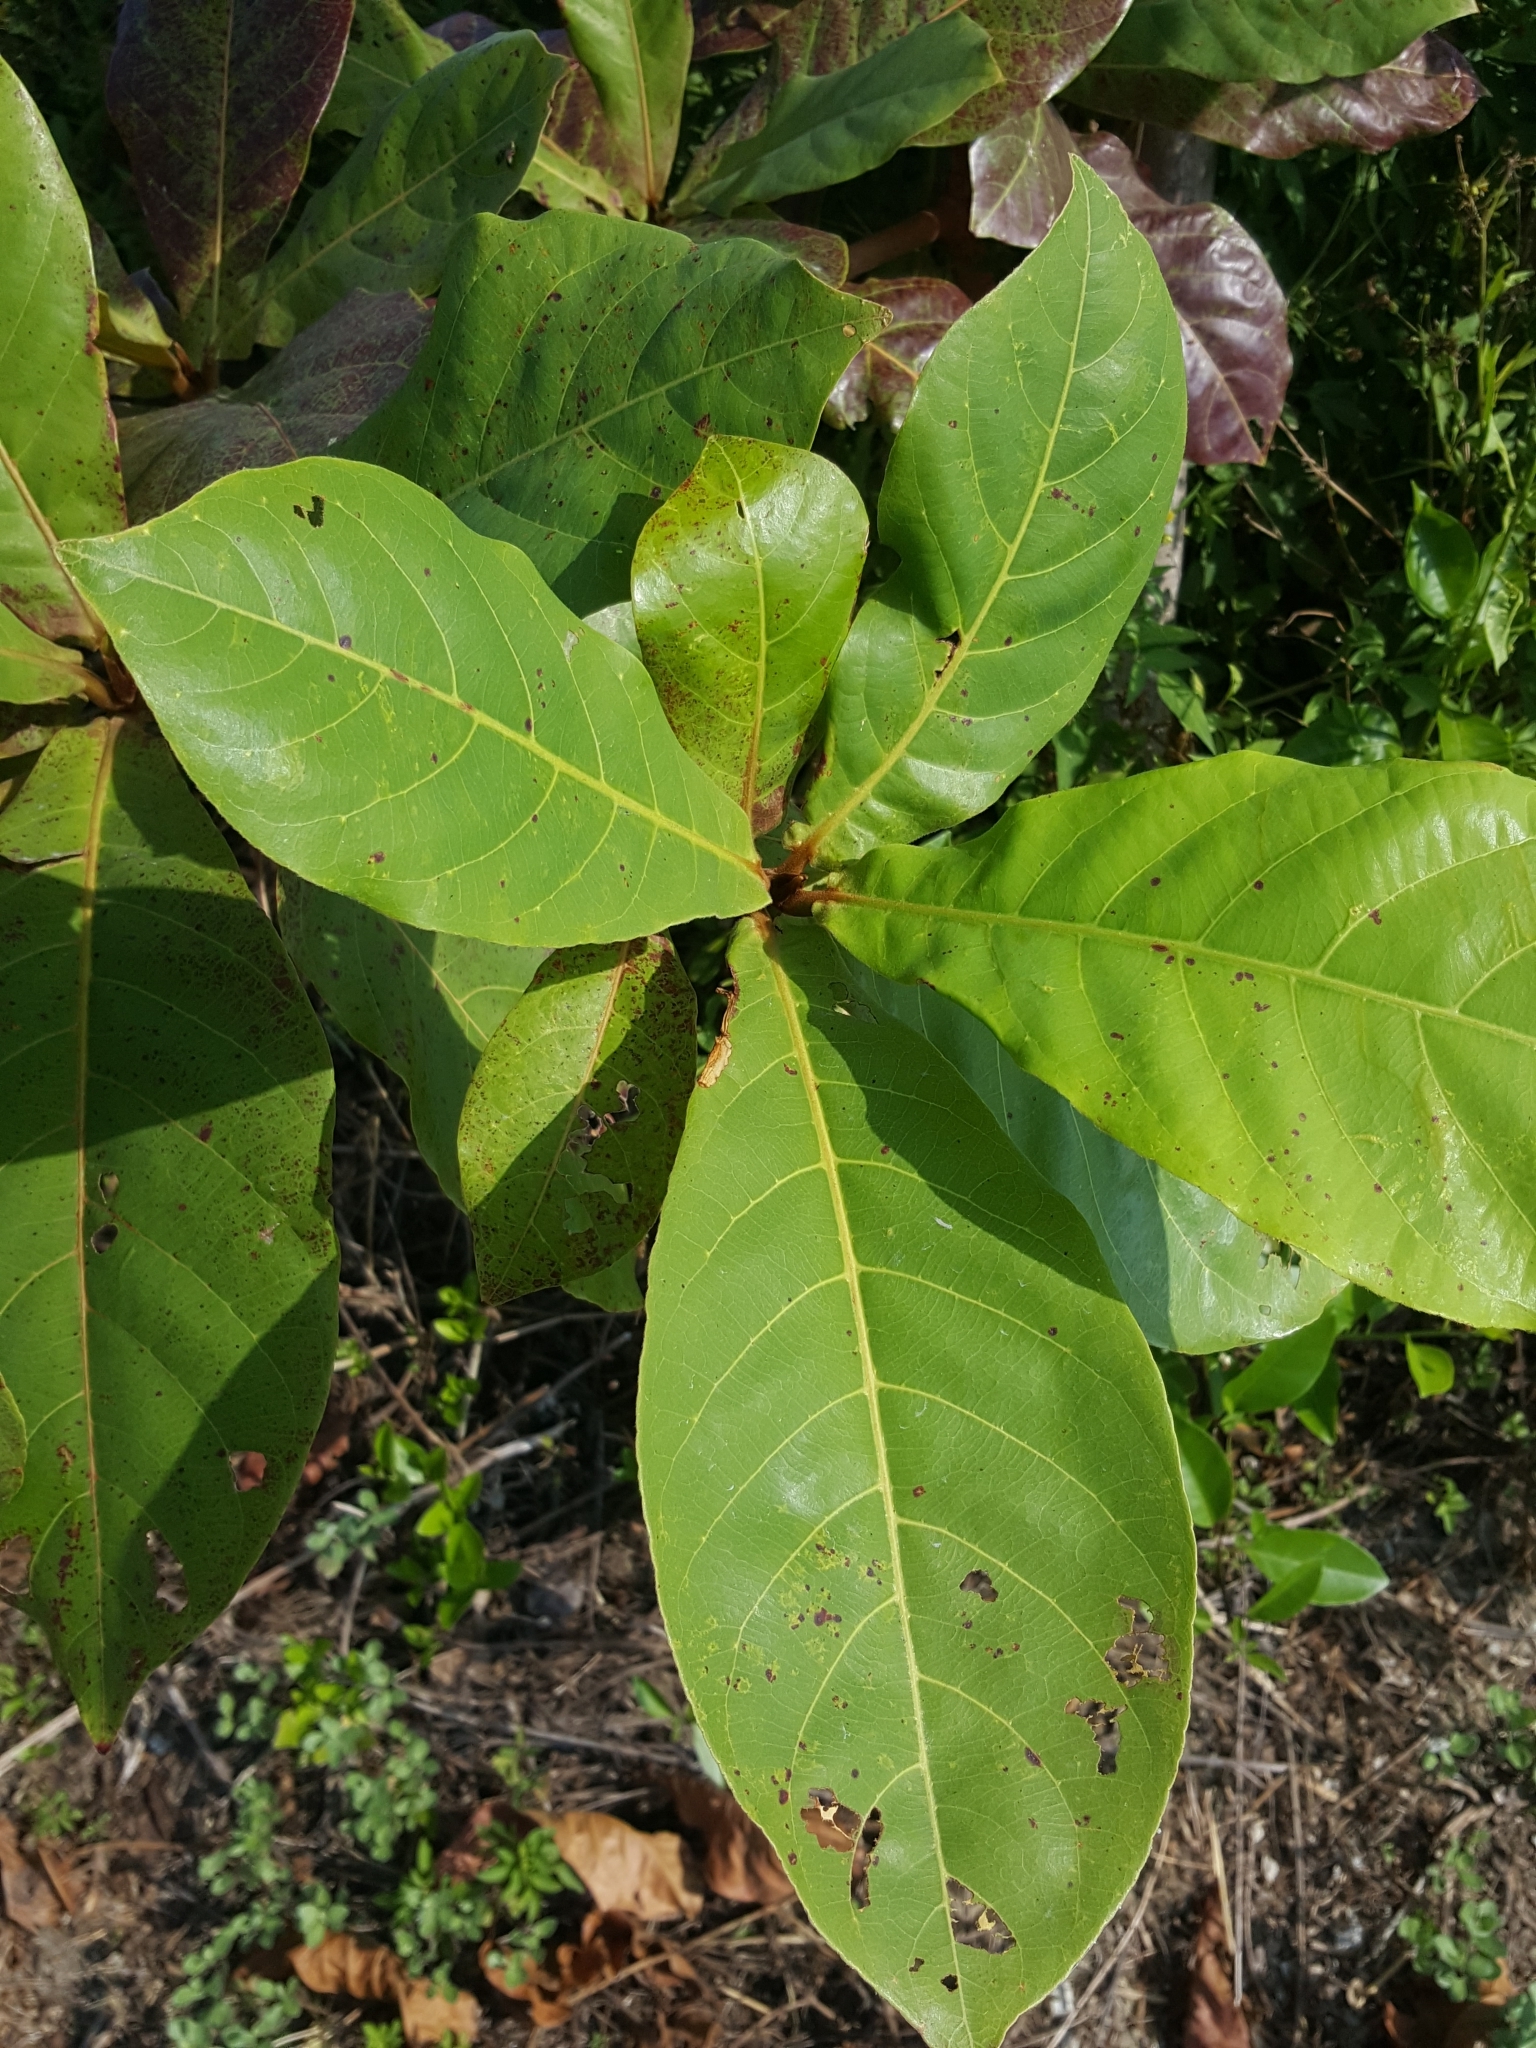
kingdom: Plantae
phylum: Tracheophyta
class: Magnoliopsida
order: Myrtales
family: Combretaceae
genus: Terminalia
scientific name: Terminalia catappa
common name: Tropical almond
